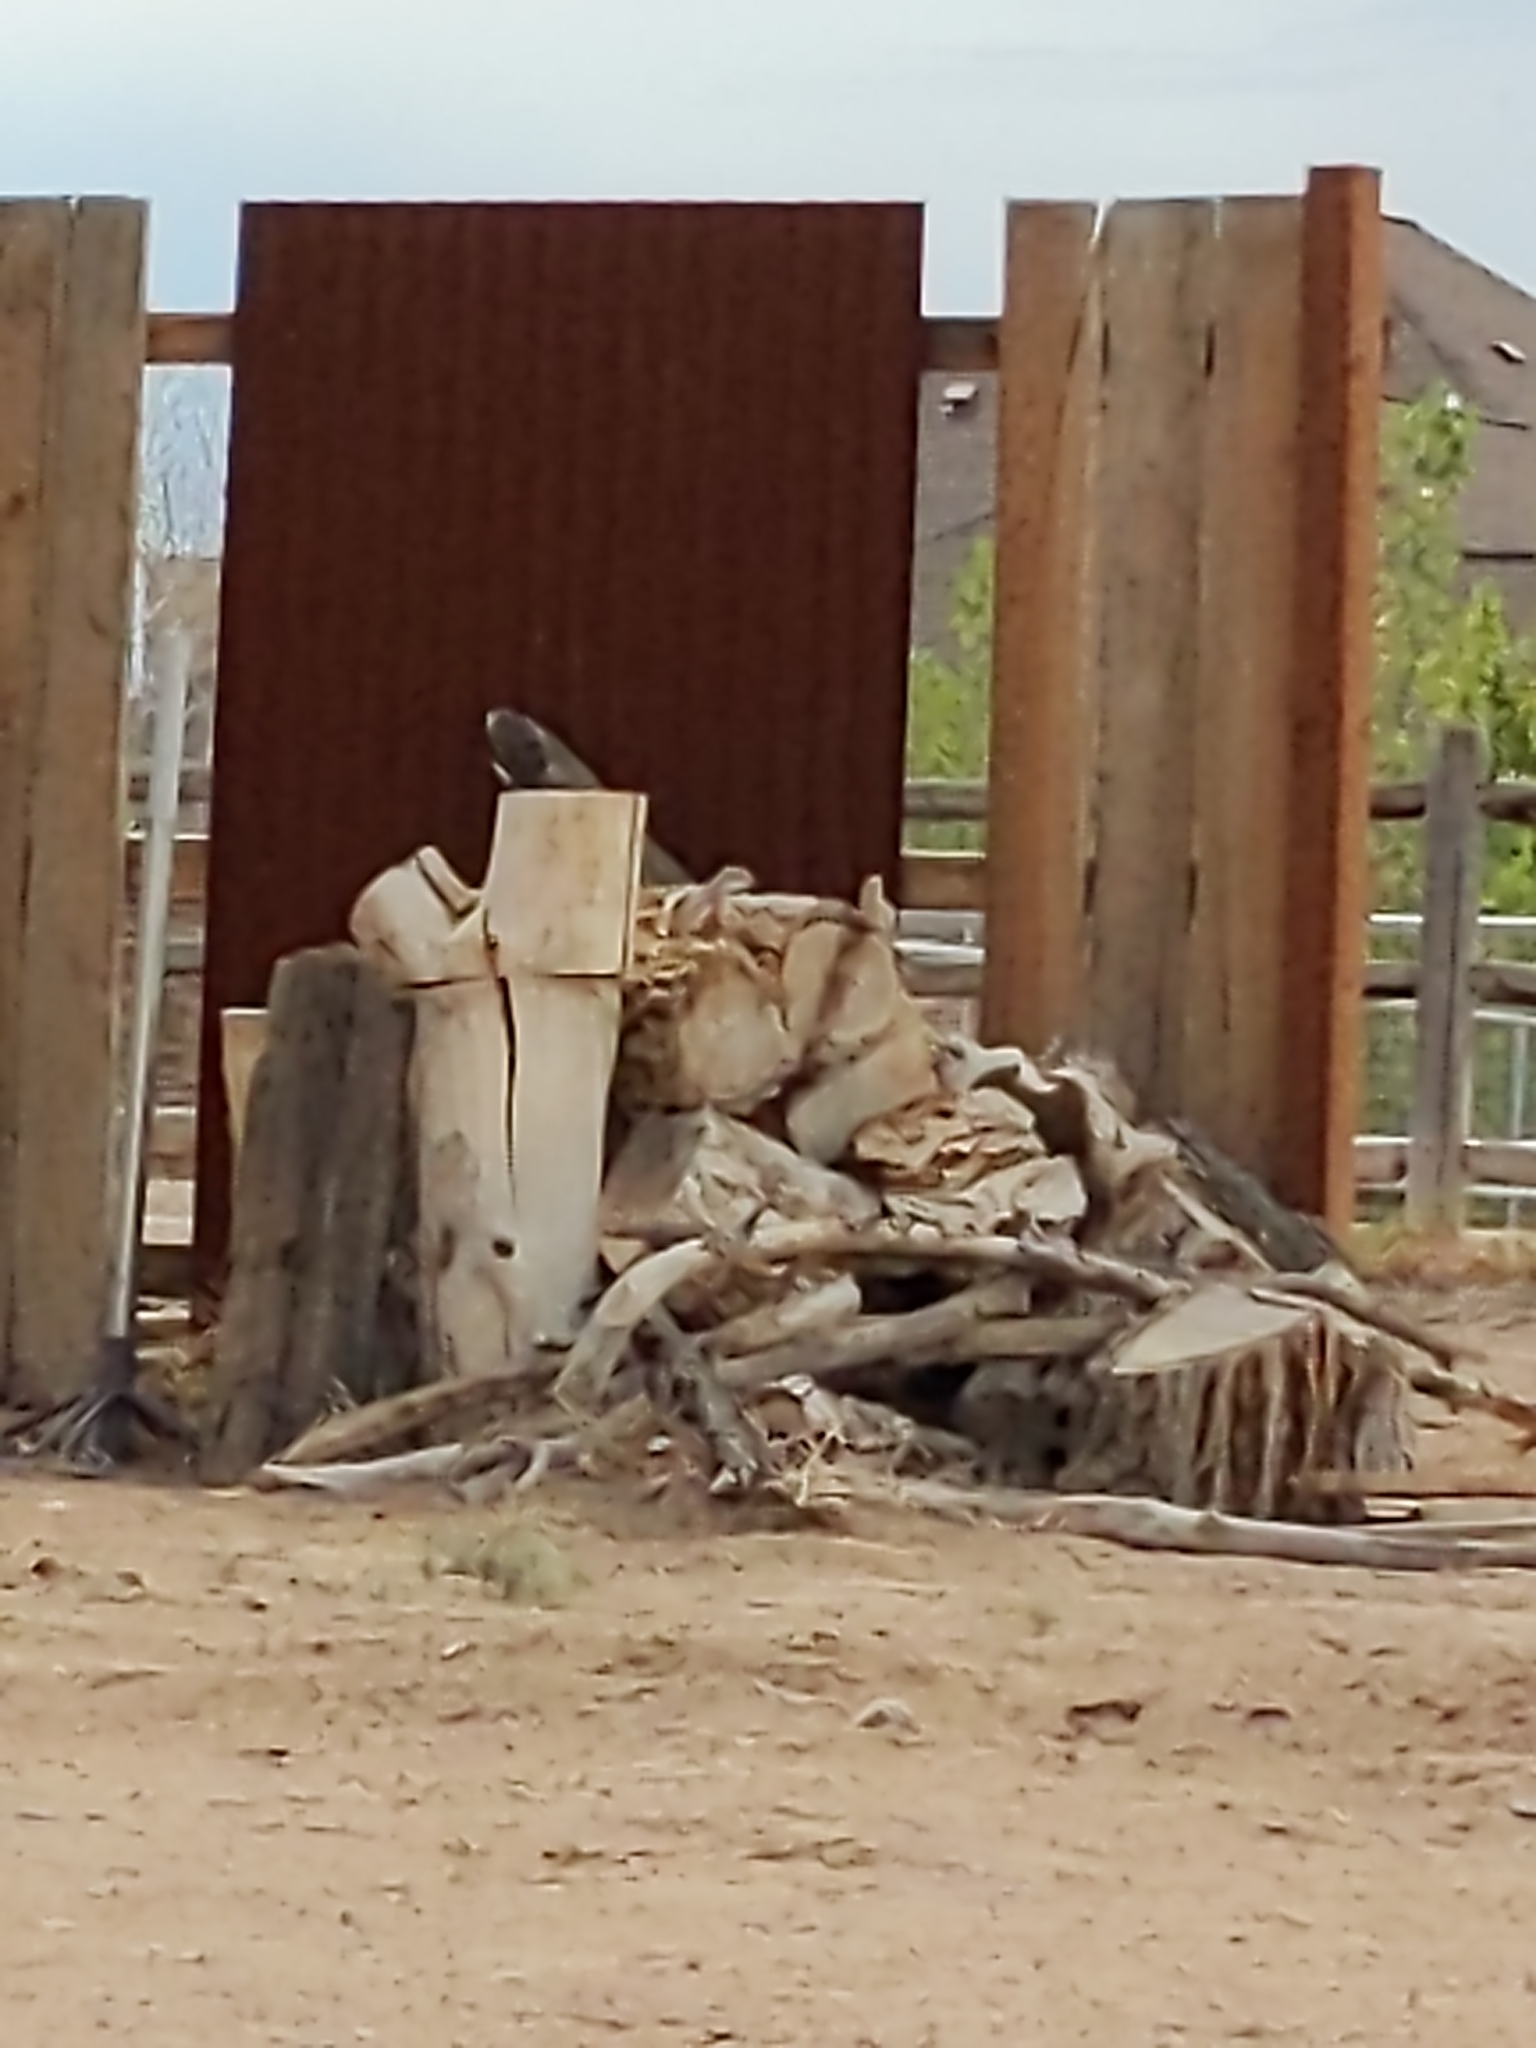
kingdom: Animalia
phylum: Chordata
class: Mammalia
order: Rodentia
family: Sciuridae
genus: Ammospermophilus
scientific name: Ammospermophilus leucurus
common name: White-tailed antelope squirrel
